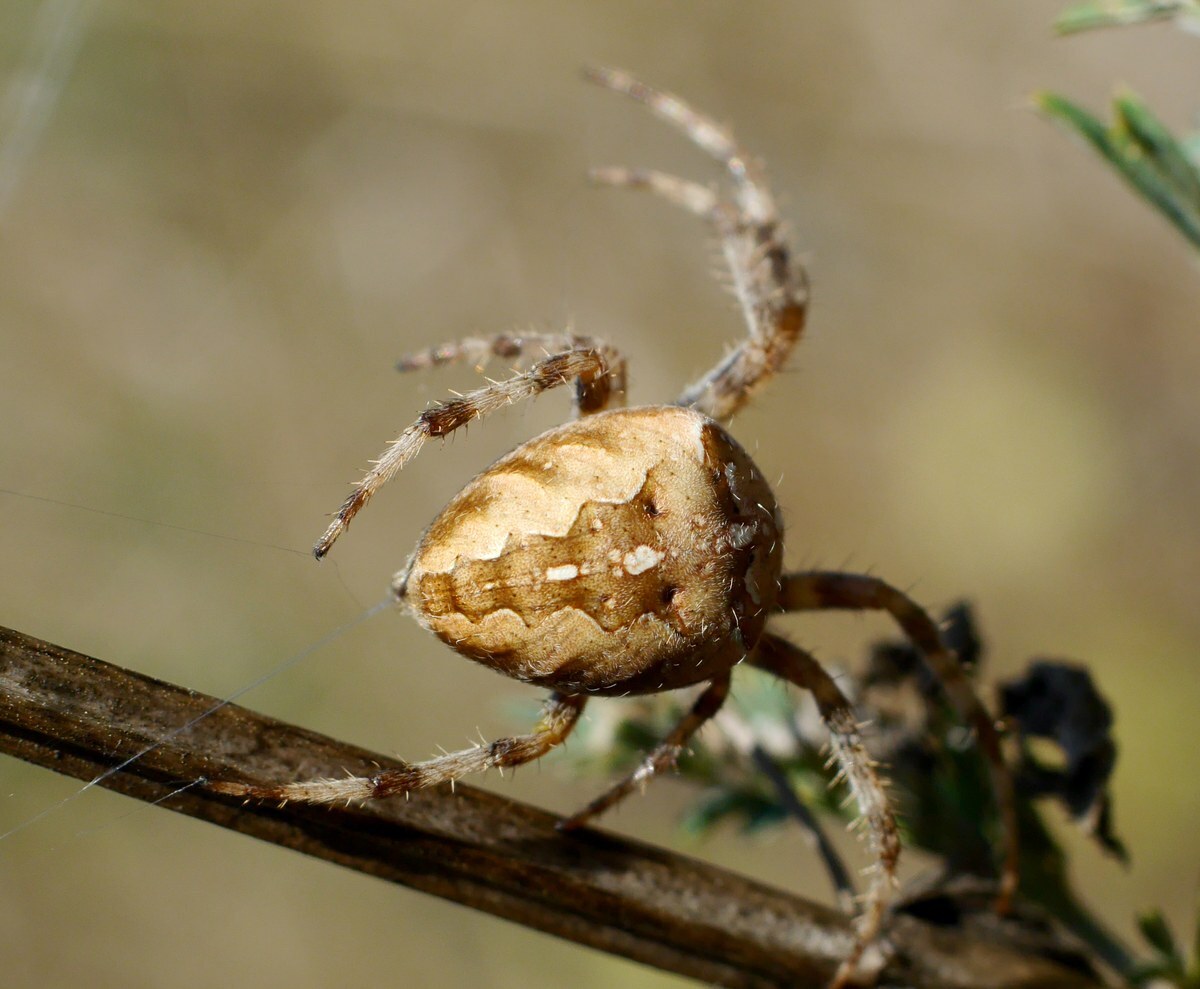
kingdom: Animalia
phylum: Arthropoda
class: Arachnida
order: Araneae
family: Araneidae
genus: Araneus
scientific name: Araneus diadematus
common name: Cross orbweaver
